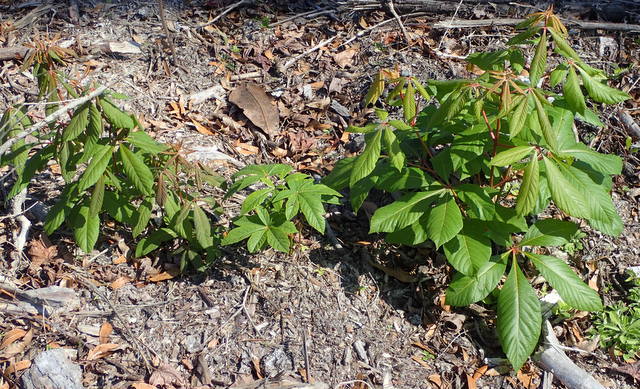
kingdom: Plantae
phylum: Tracheophyta
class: Magnoliopsida
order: Sapindales
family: Sapindaceae
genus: Aesculus
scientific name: Aesculus pavia
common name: Red buckeye
